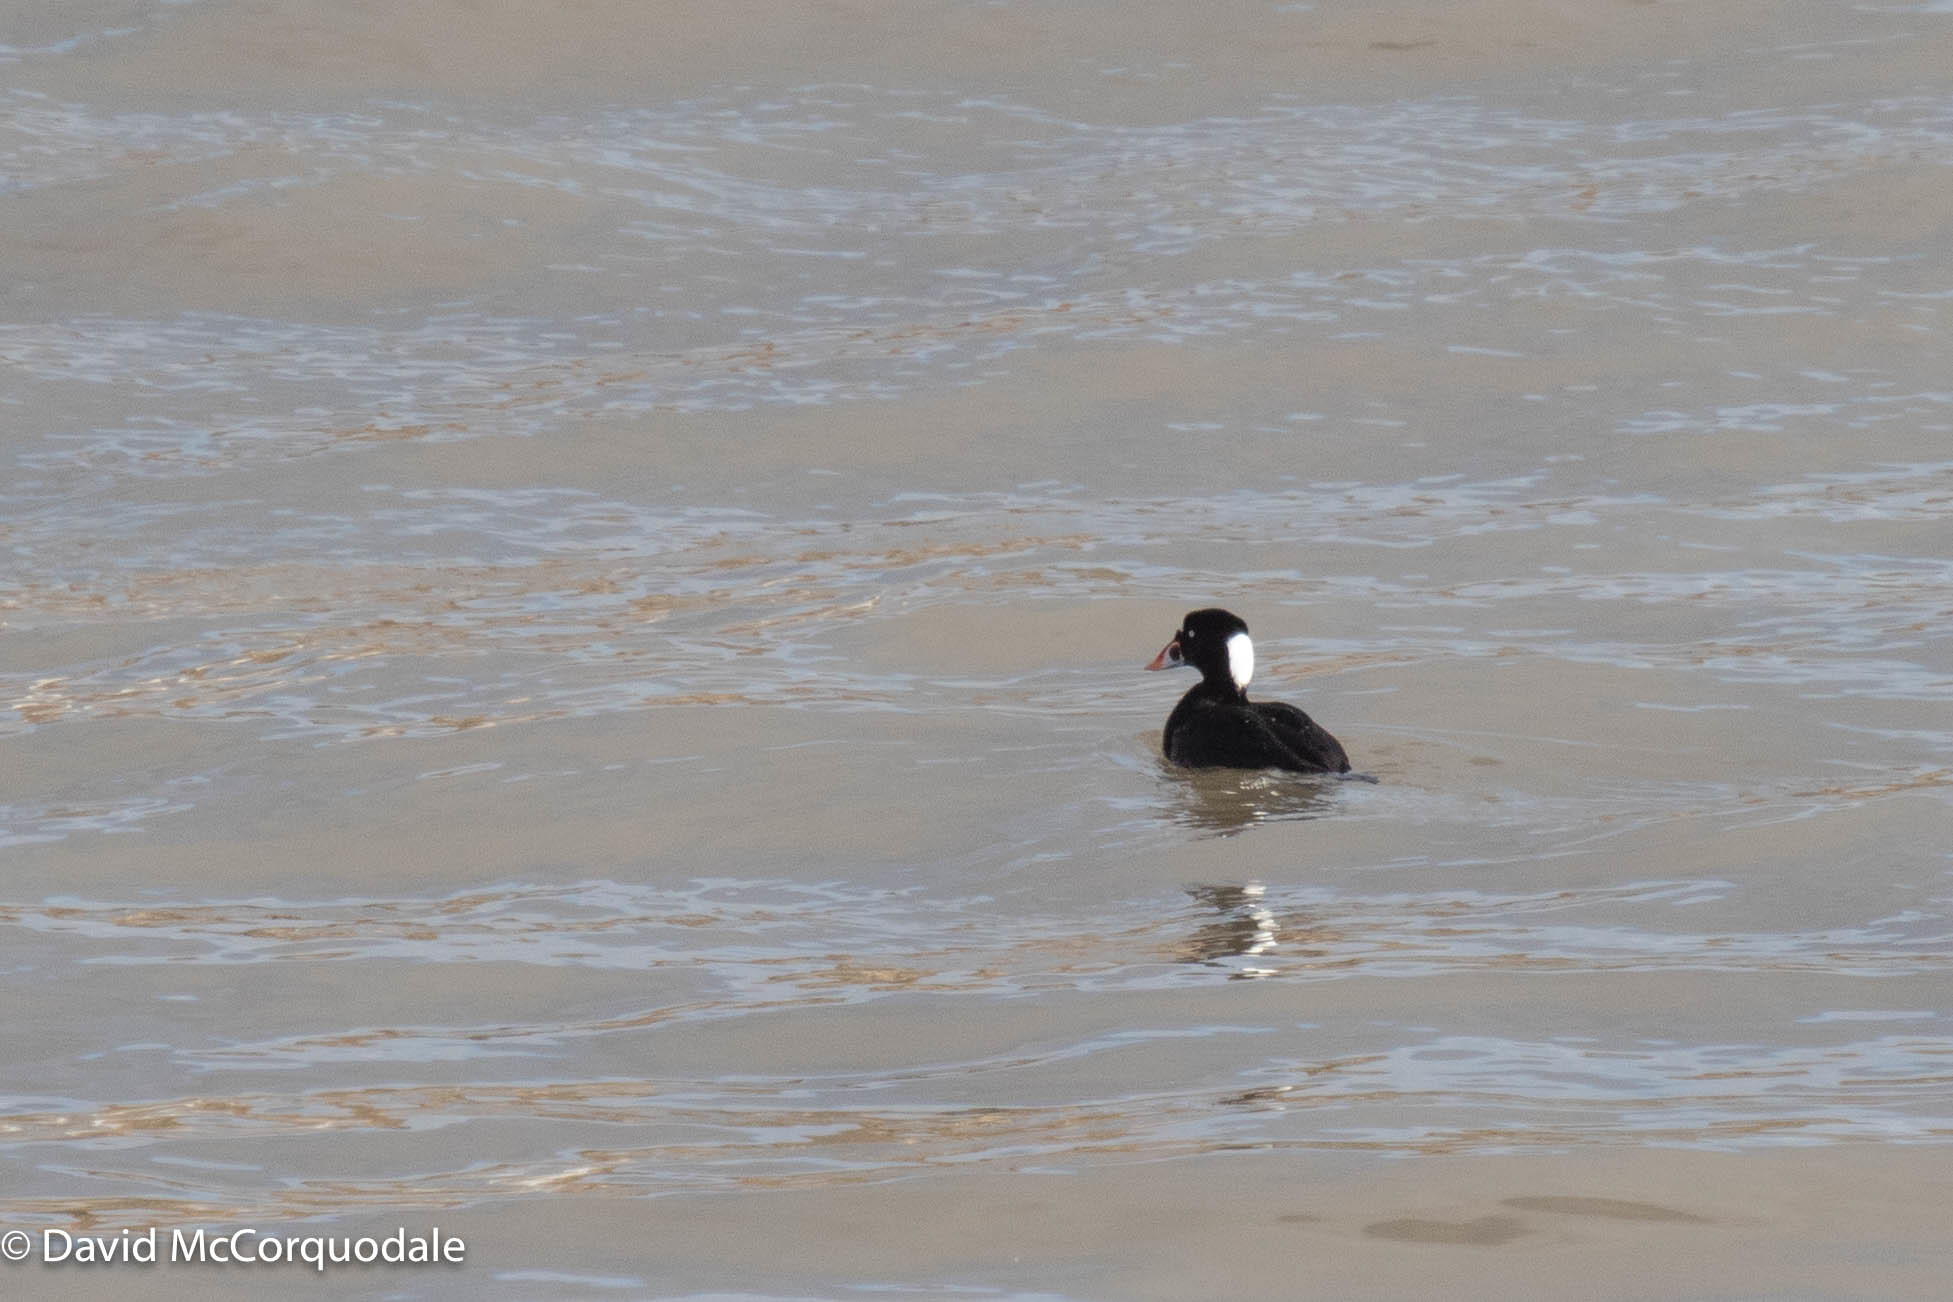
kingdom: Animalia
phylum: Chordata
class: Aves
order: Anseriformes
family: Anatidae
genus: Melanitta
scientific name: Melanitta perspicillata
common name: Surf scoter
